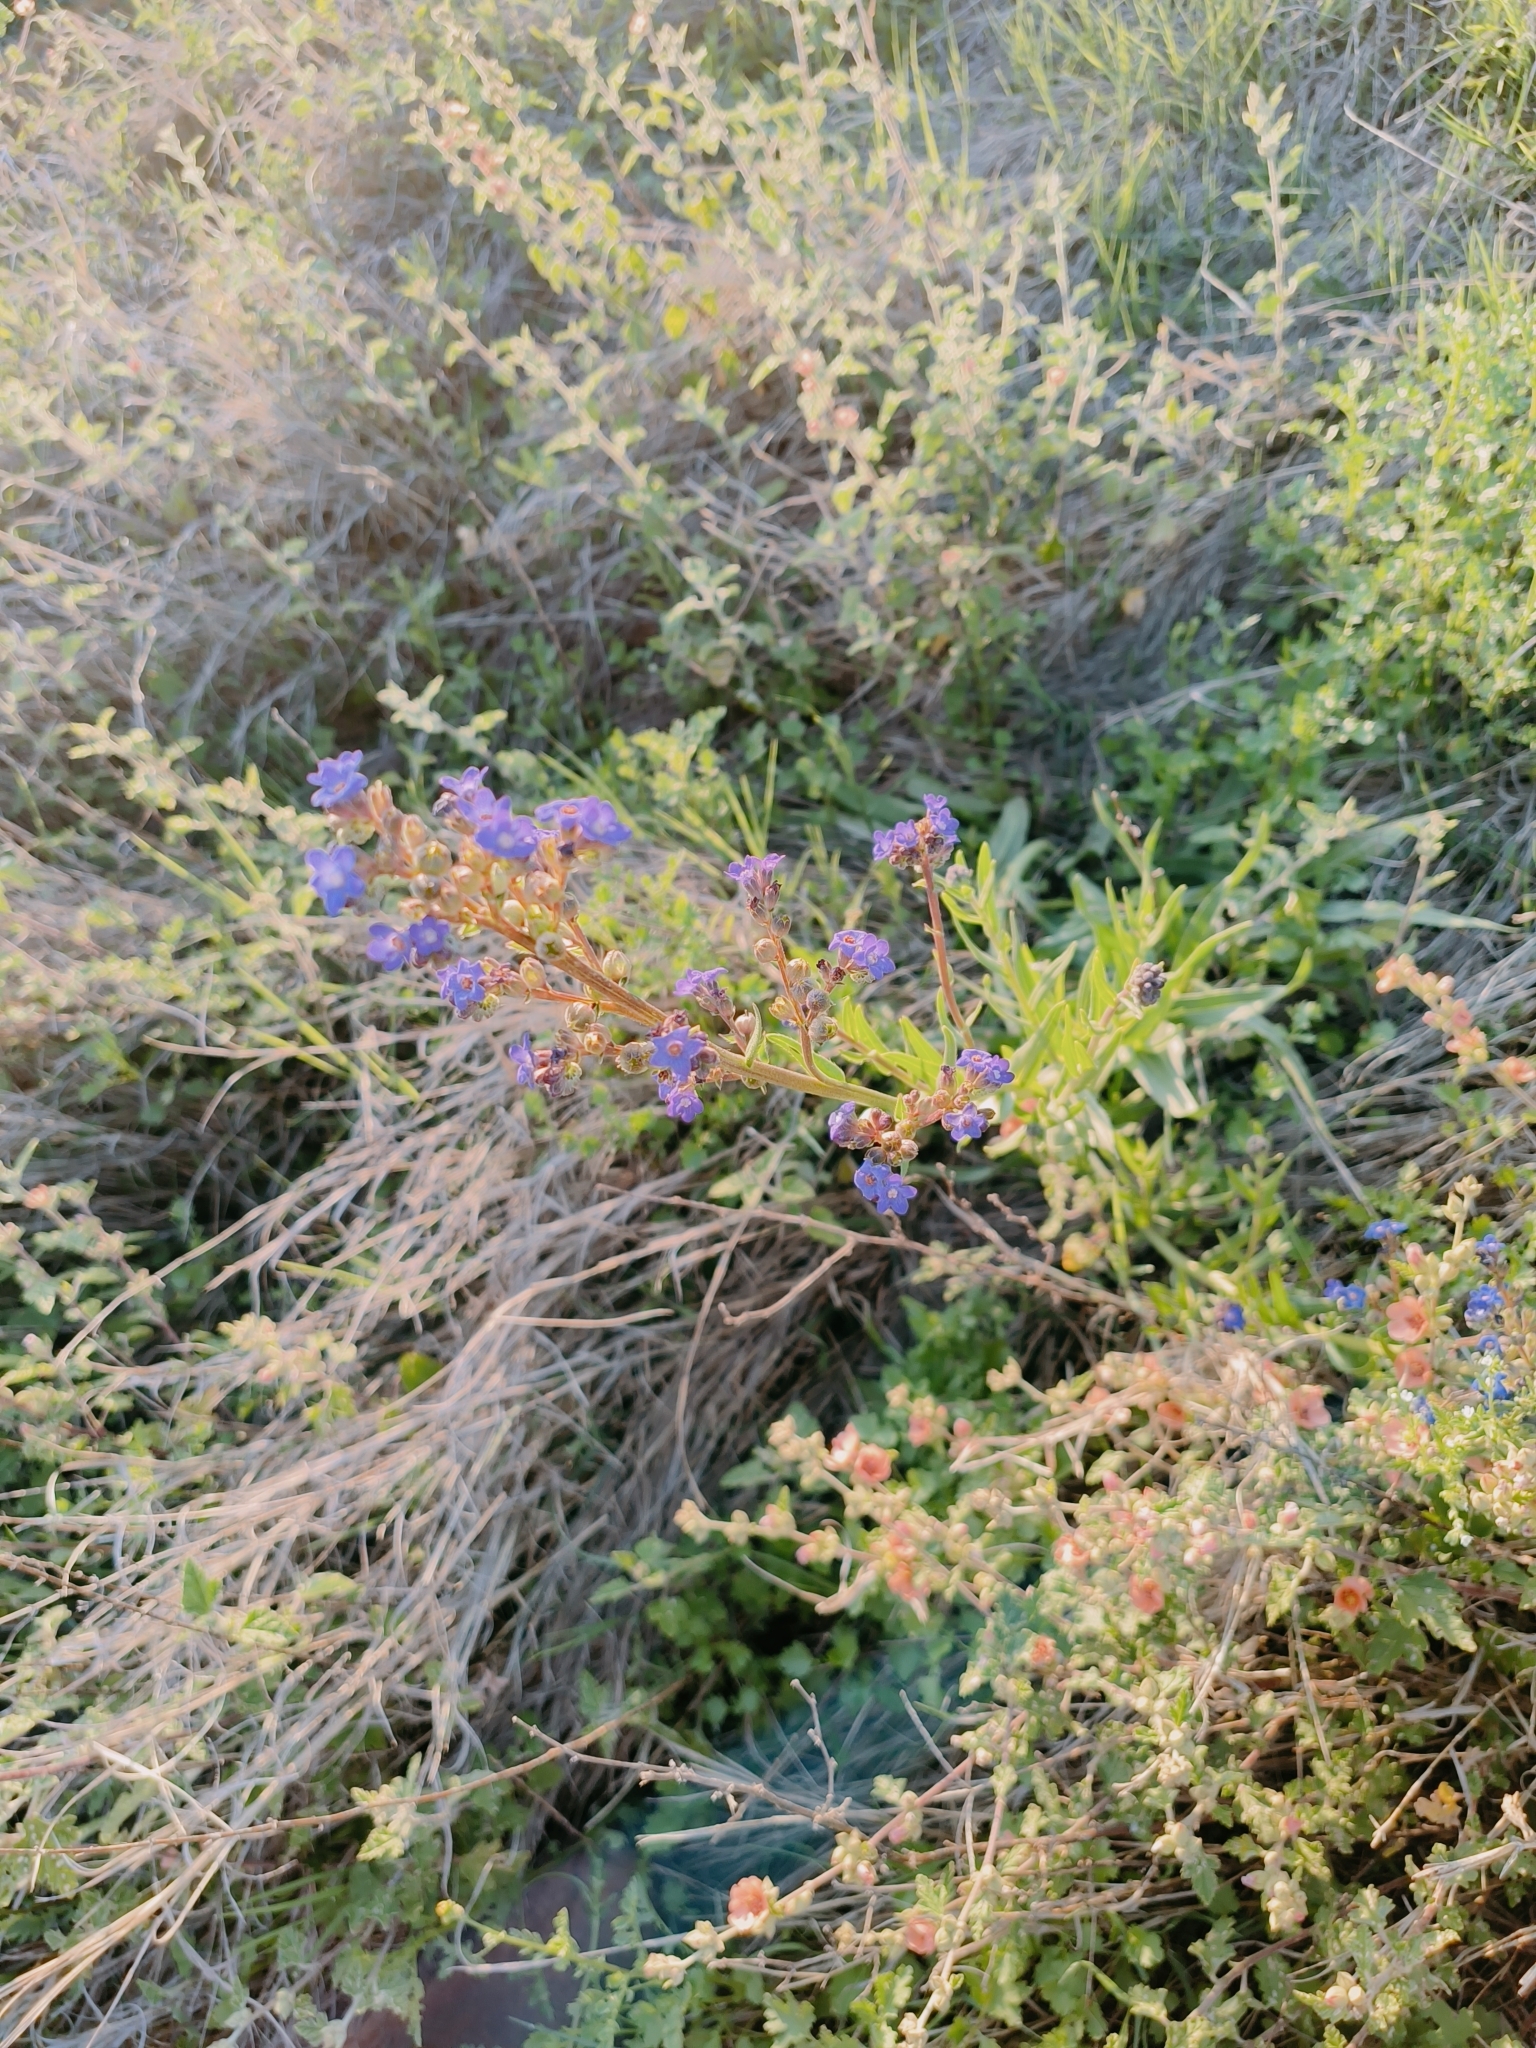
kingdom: Plantae
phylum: Tracheophyta
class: Magnoliopsida
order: Boraginales
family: Boraginaceae
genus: Anchusa
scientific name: Anchusa capensis
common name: Cape bugloss
